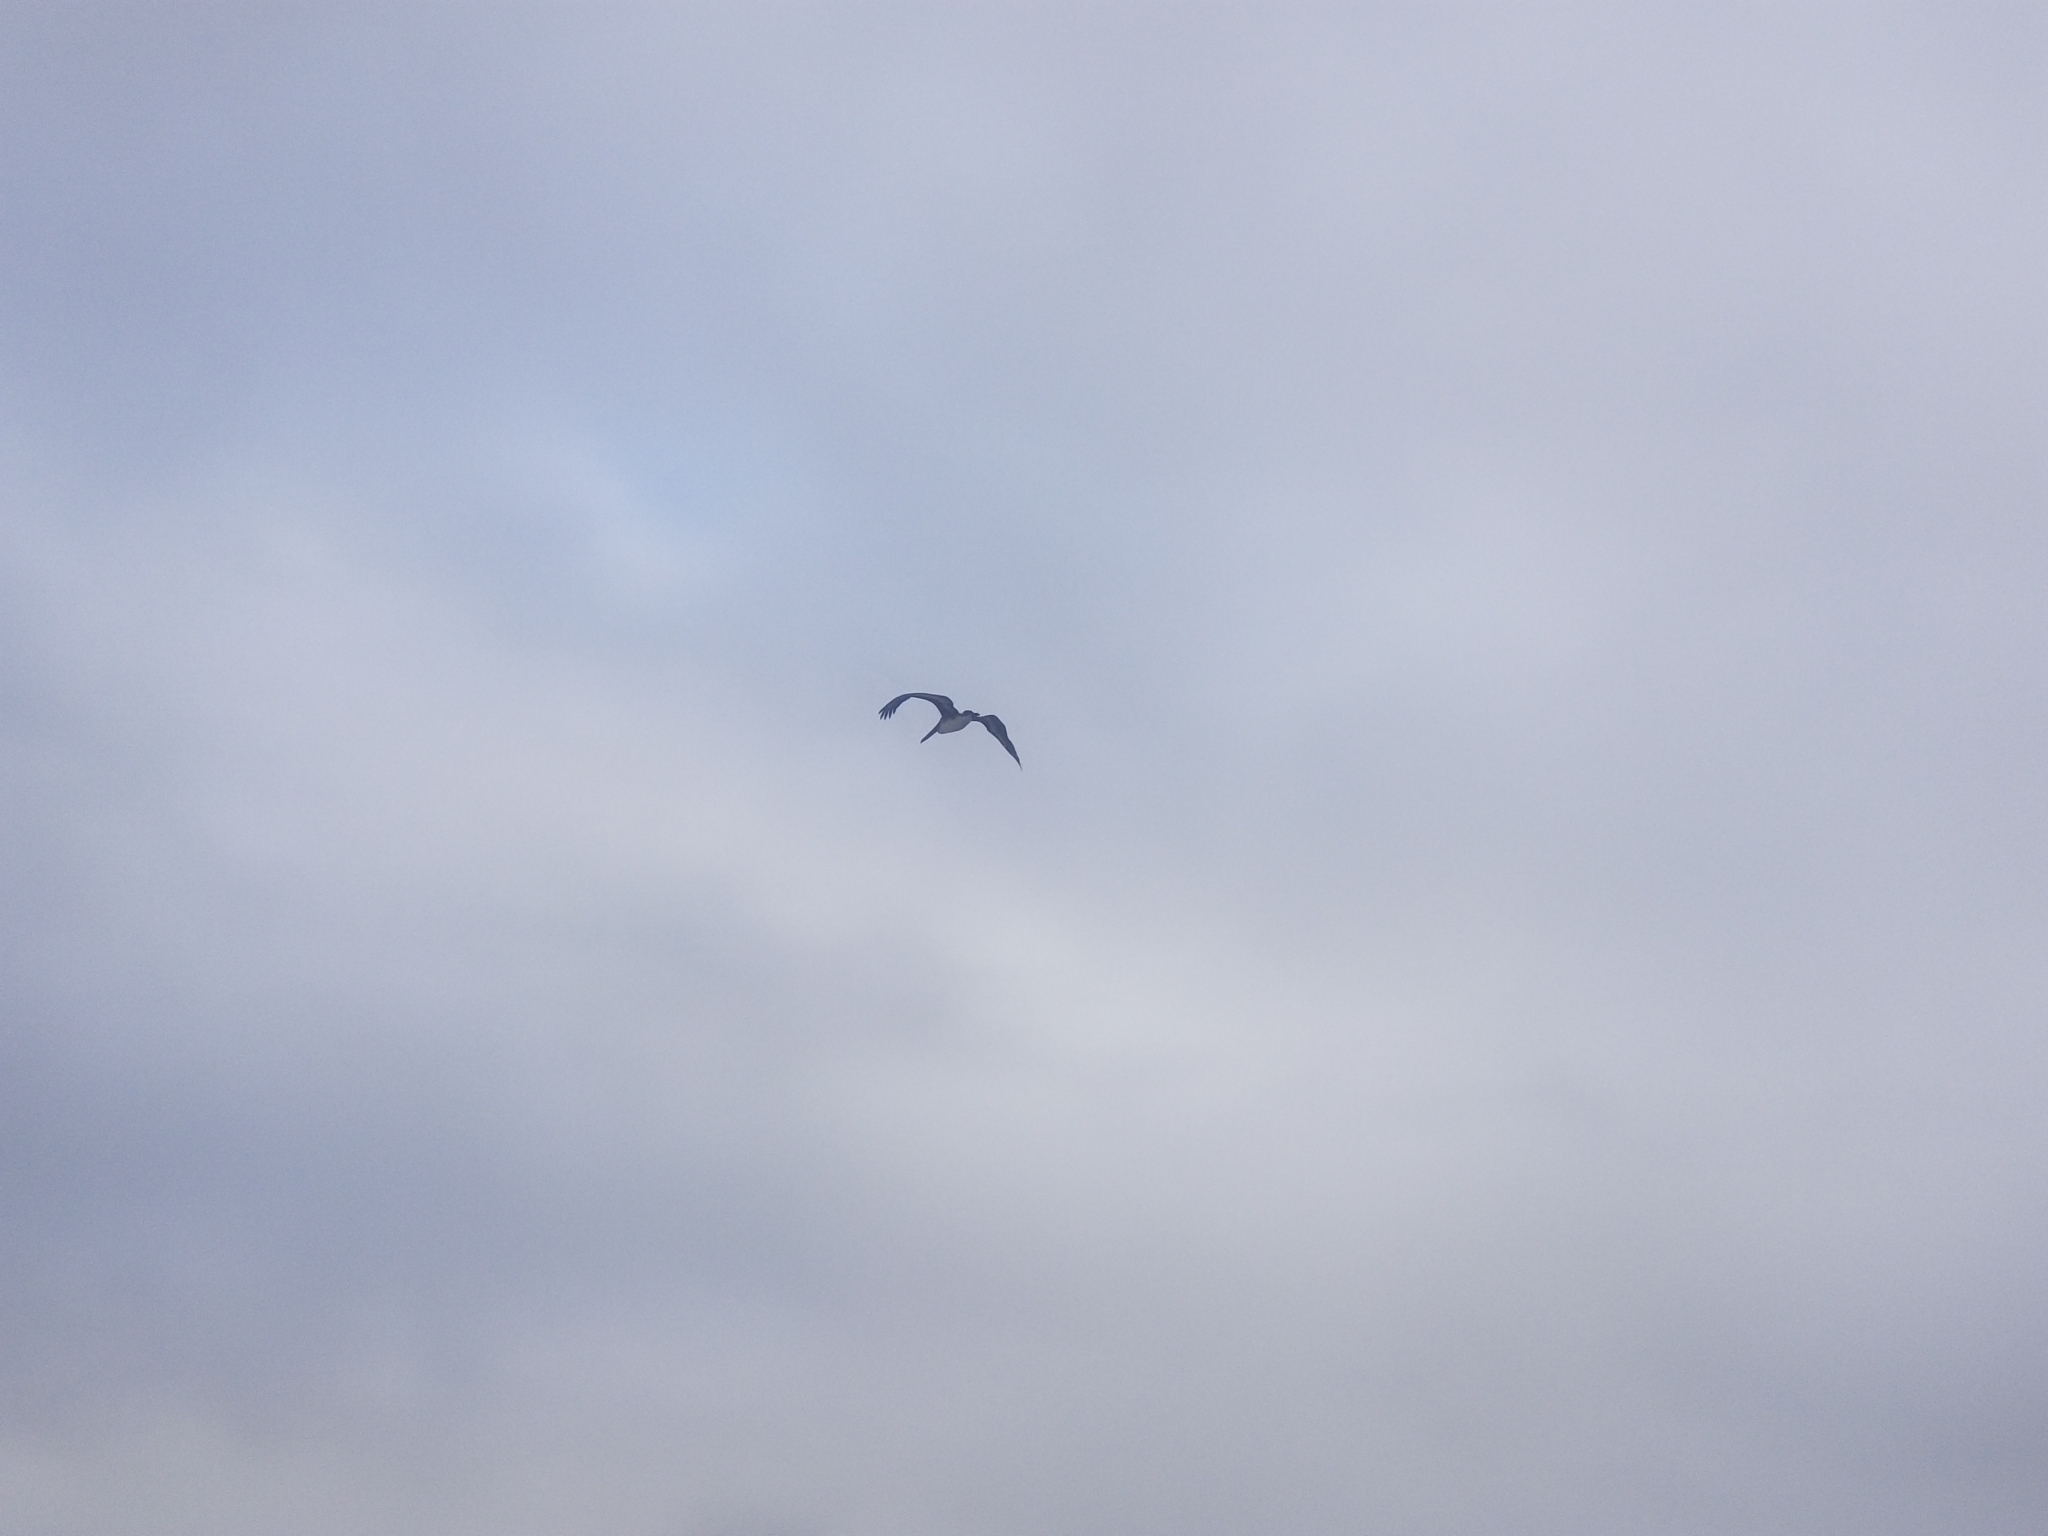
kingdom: Animalia
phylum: Chordata
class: Aves
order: Pelecaniformes
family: Pelecanidae
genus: Pelecanus
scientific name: Pelecanus occidentalis
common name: Brown pelican
